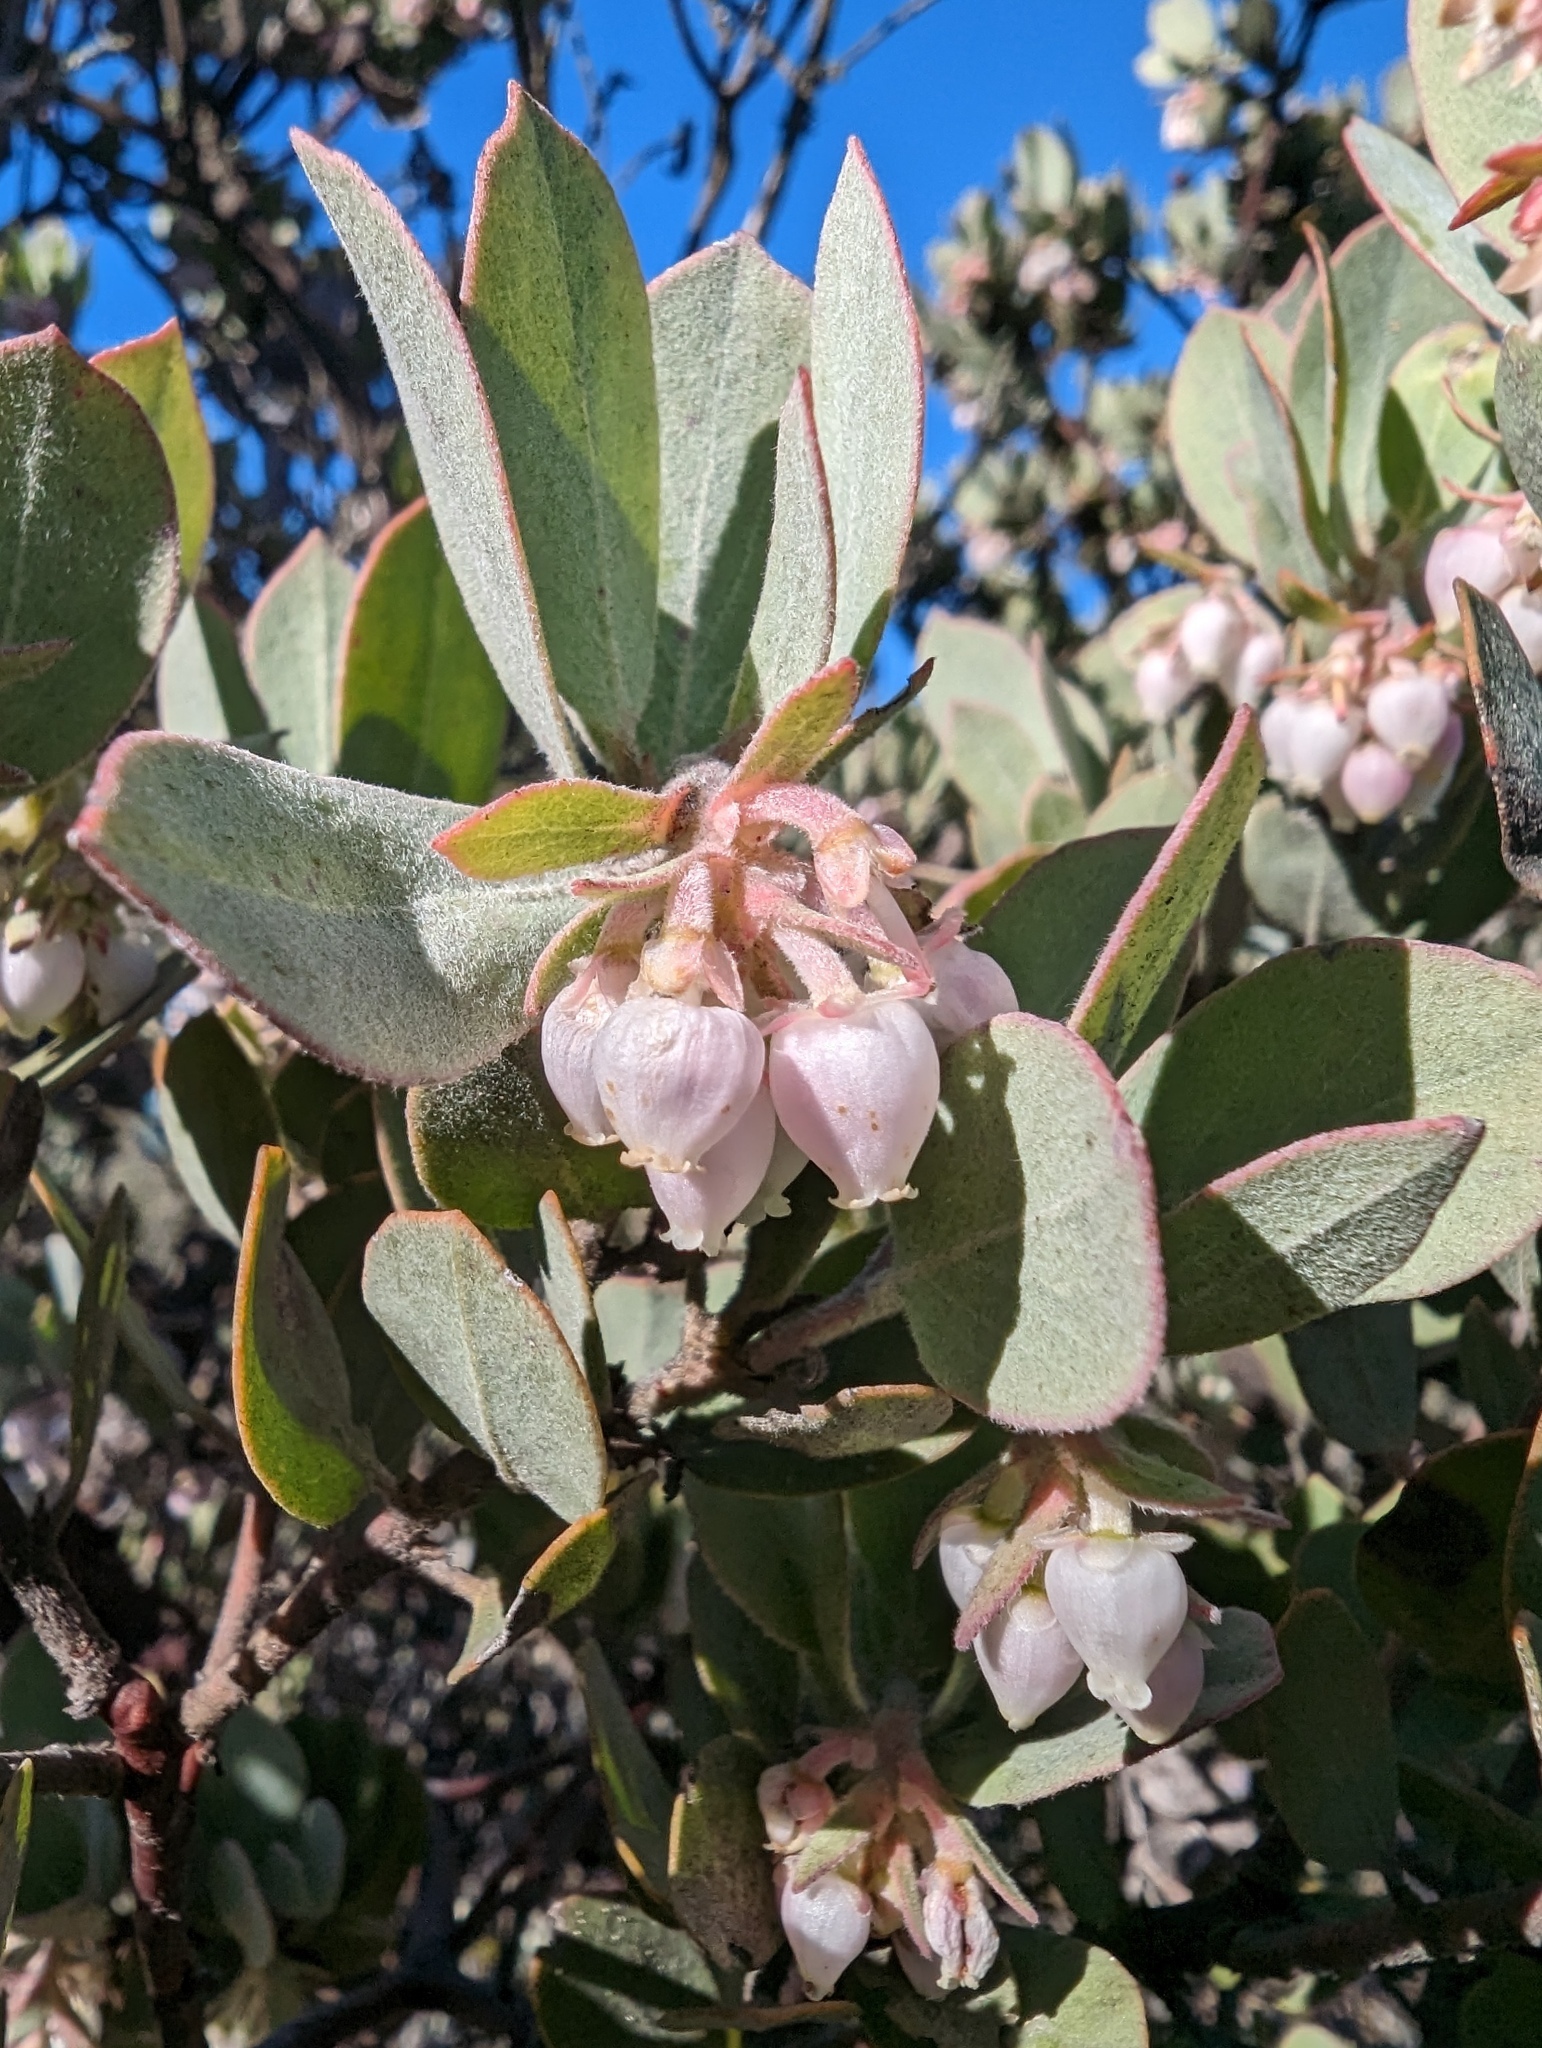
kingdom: Plantae
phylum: Tracheophyta
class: Magnoliopsida
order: Ericales
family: Ericaceae
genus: Arctostaphylos
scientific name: Arctostaphylos canescens
